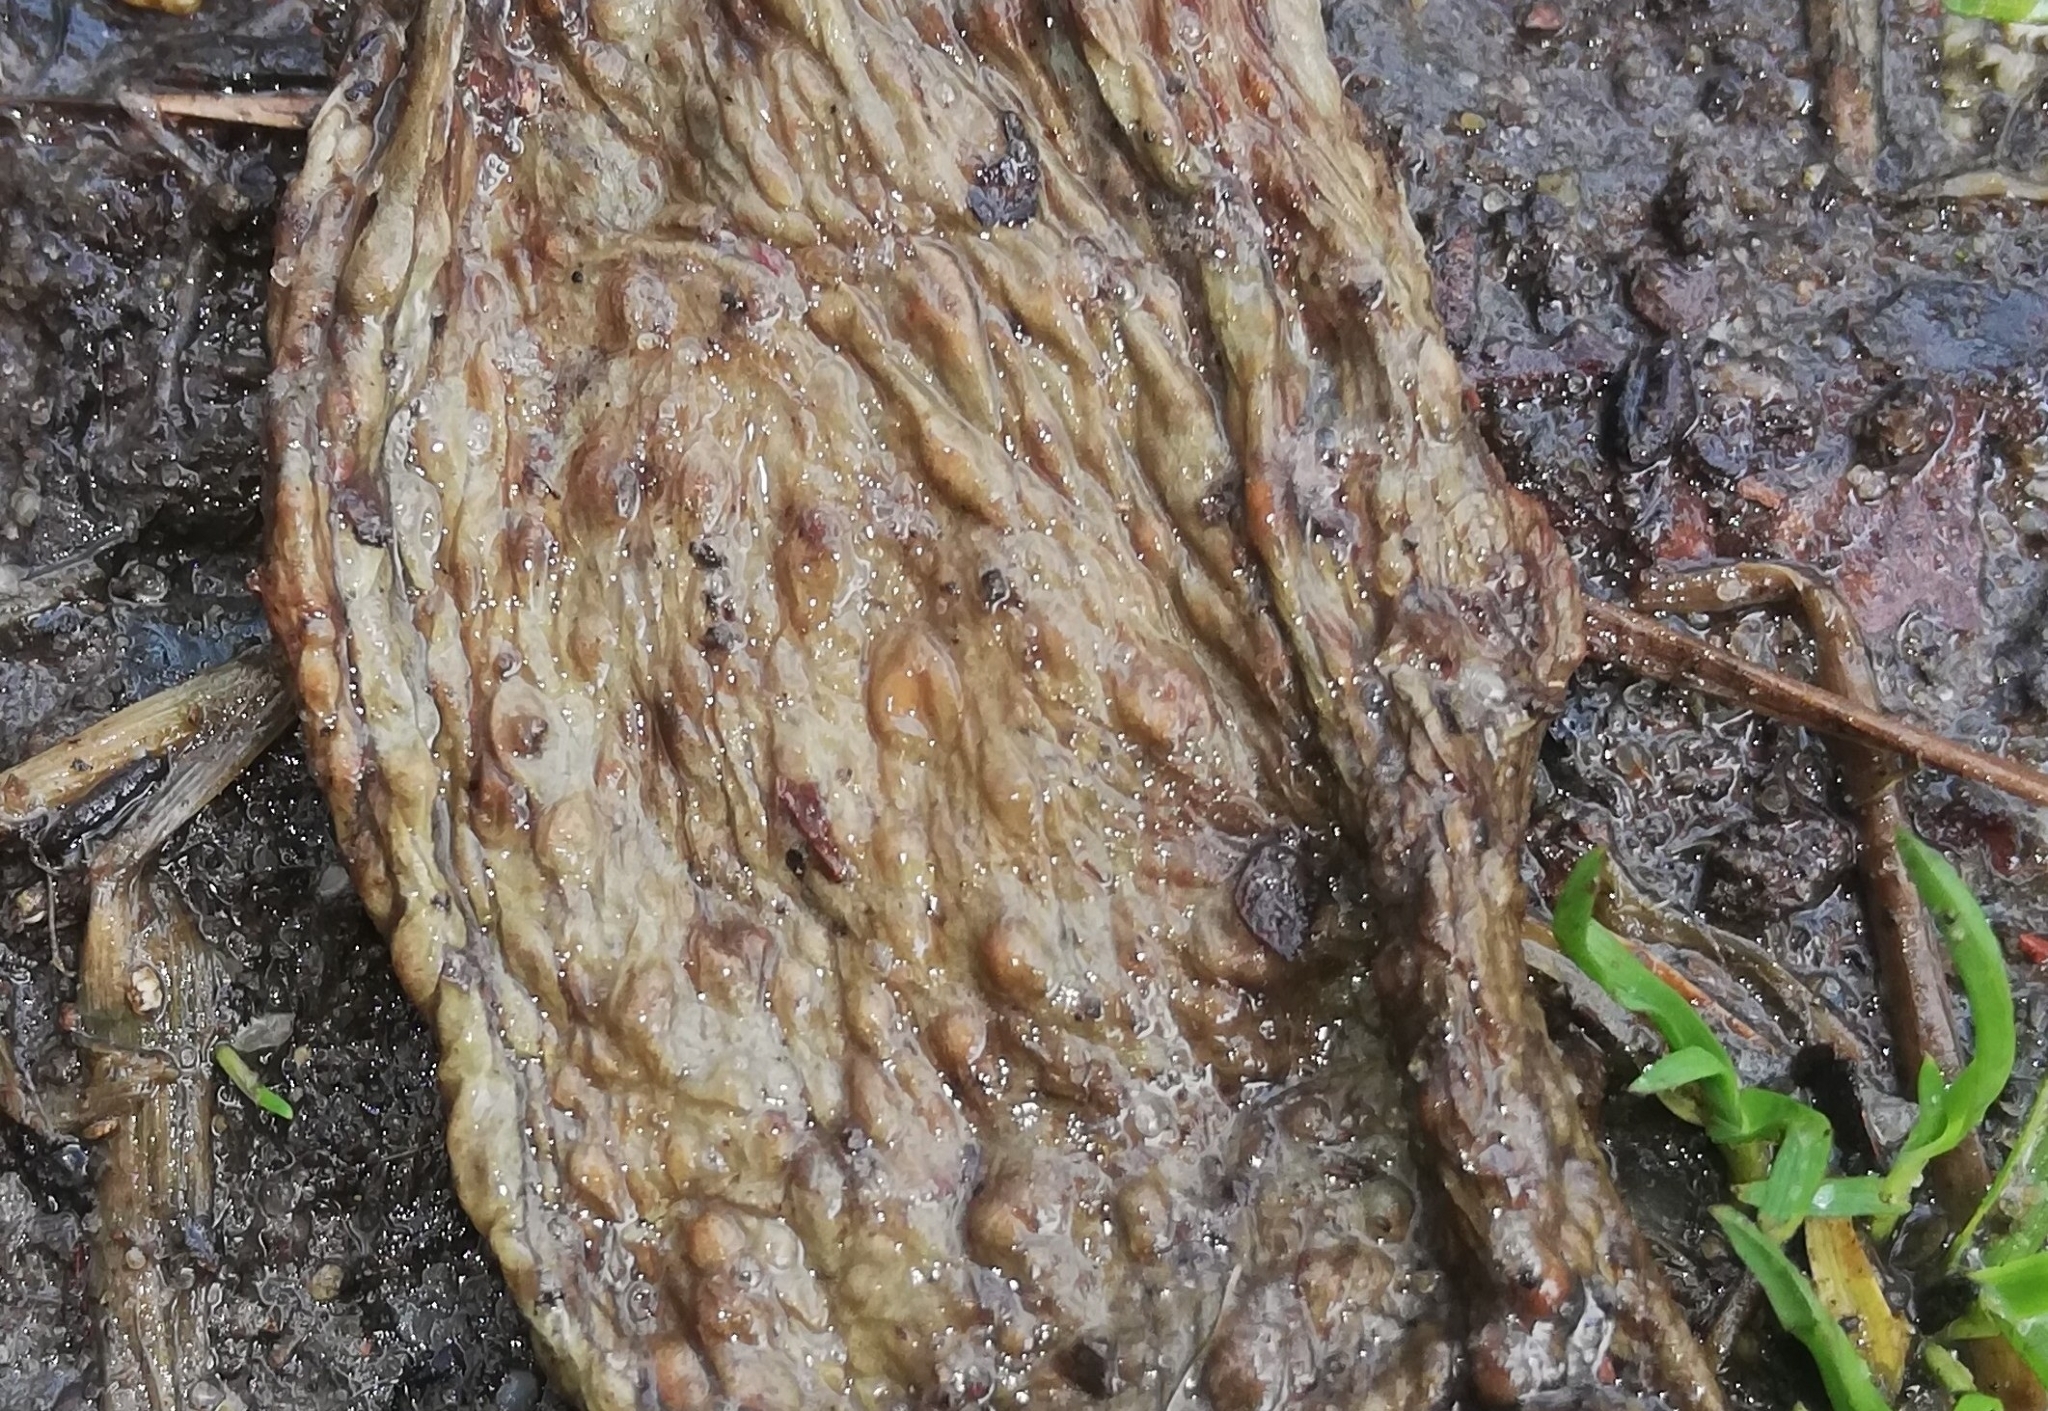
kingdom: Animalia
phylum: Chordata
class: Amphibia
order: Anura
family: Bufonidae
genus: Bufo
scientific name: Bufo bufo
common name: Common toad
